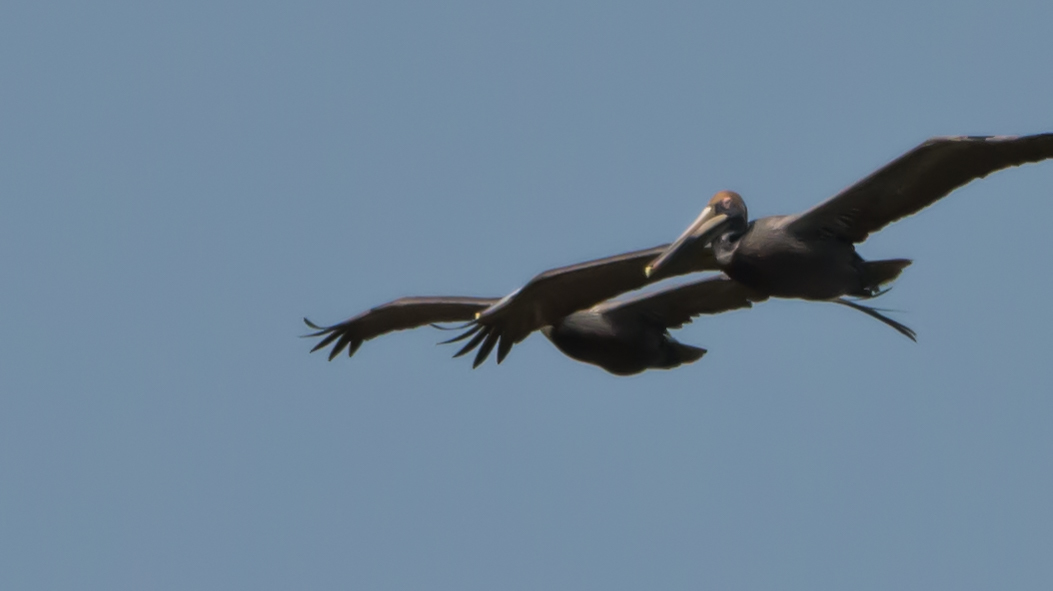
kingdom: Animalia
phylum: Chordata
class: Aves
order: Pelecaniformes
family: Pelecanidae
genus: Pelecanus
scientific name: Pelecanus occidentalis
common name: Brown pelican
